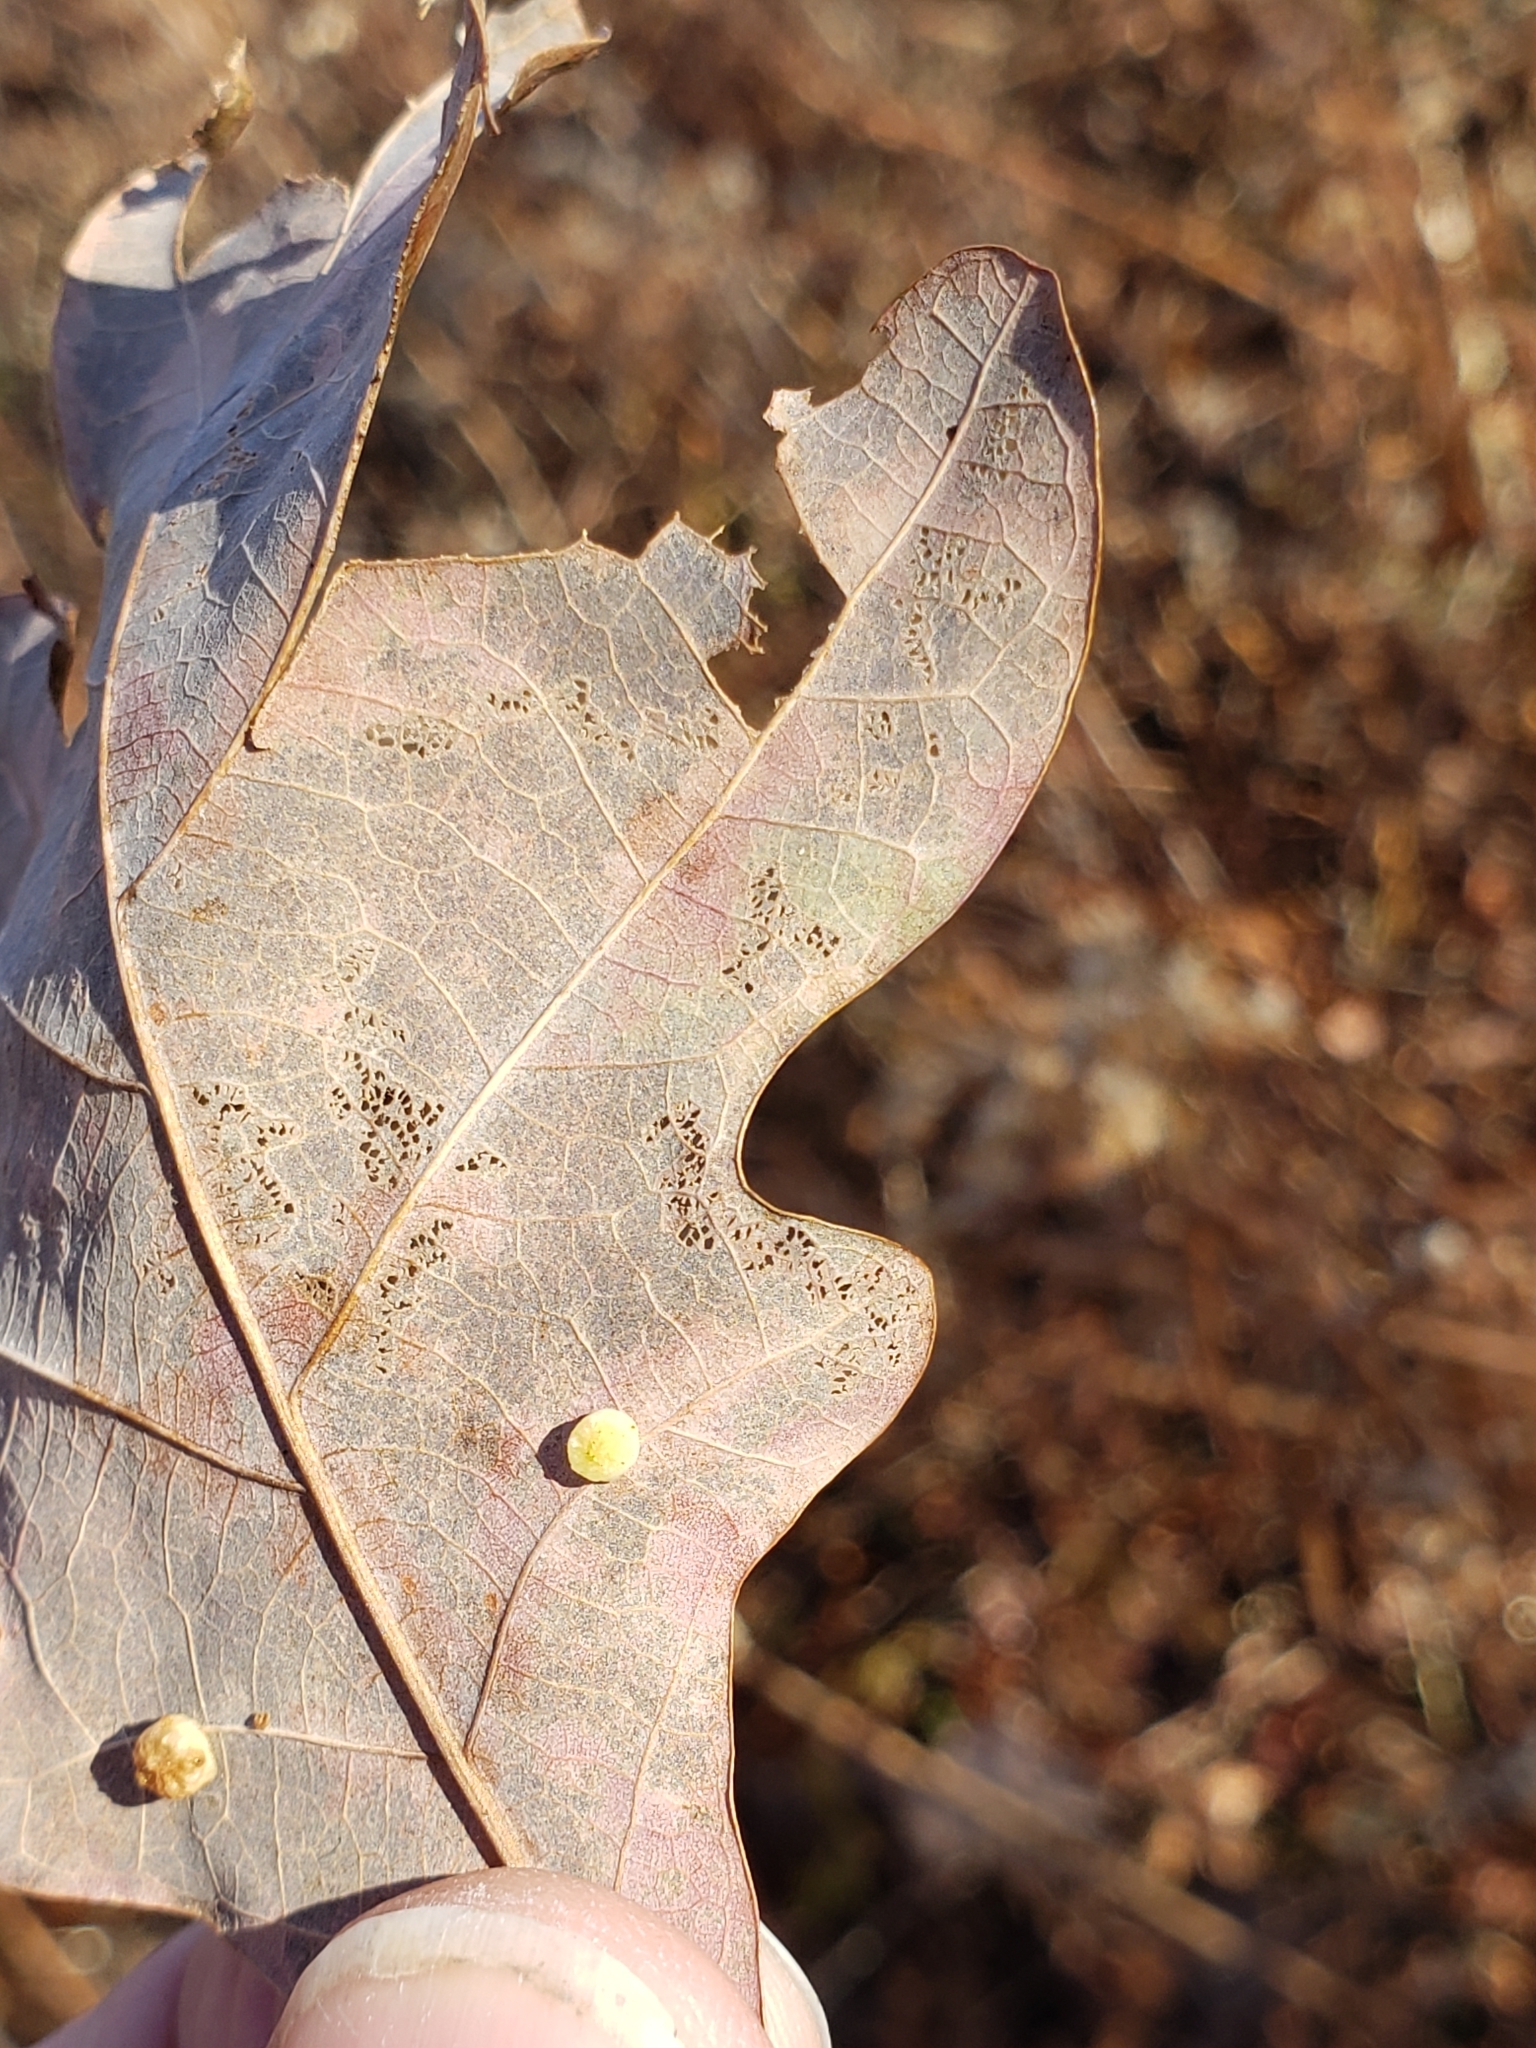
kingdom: Animalia
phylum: Arthropoda
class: Insecta
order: Hymenoptera
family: Cynipidae
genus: Phylloteras
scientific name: Phylloteras
